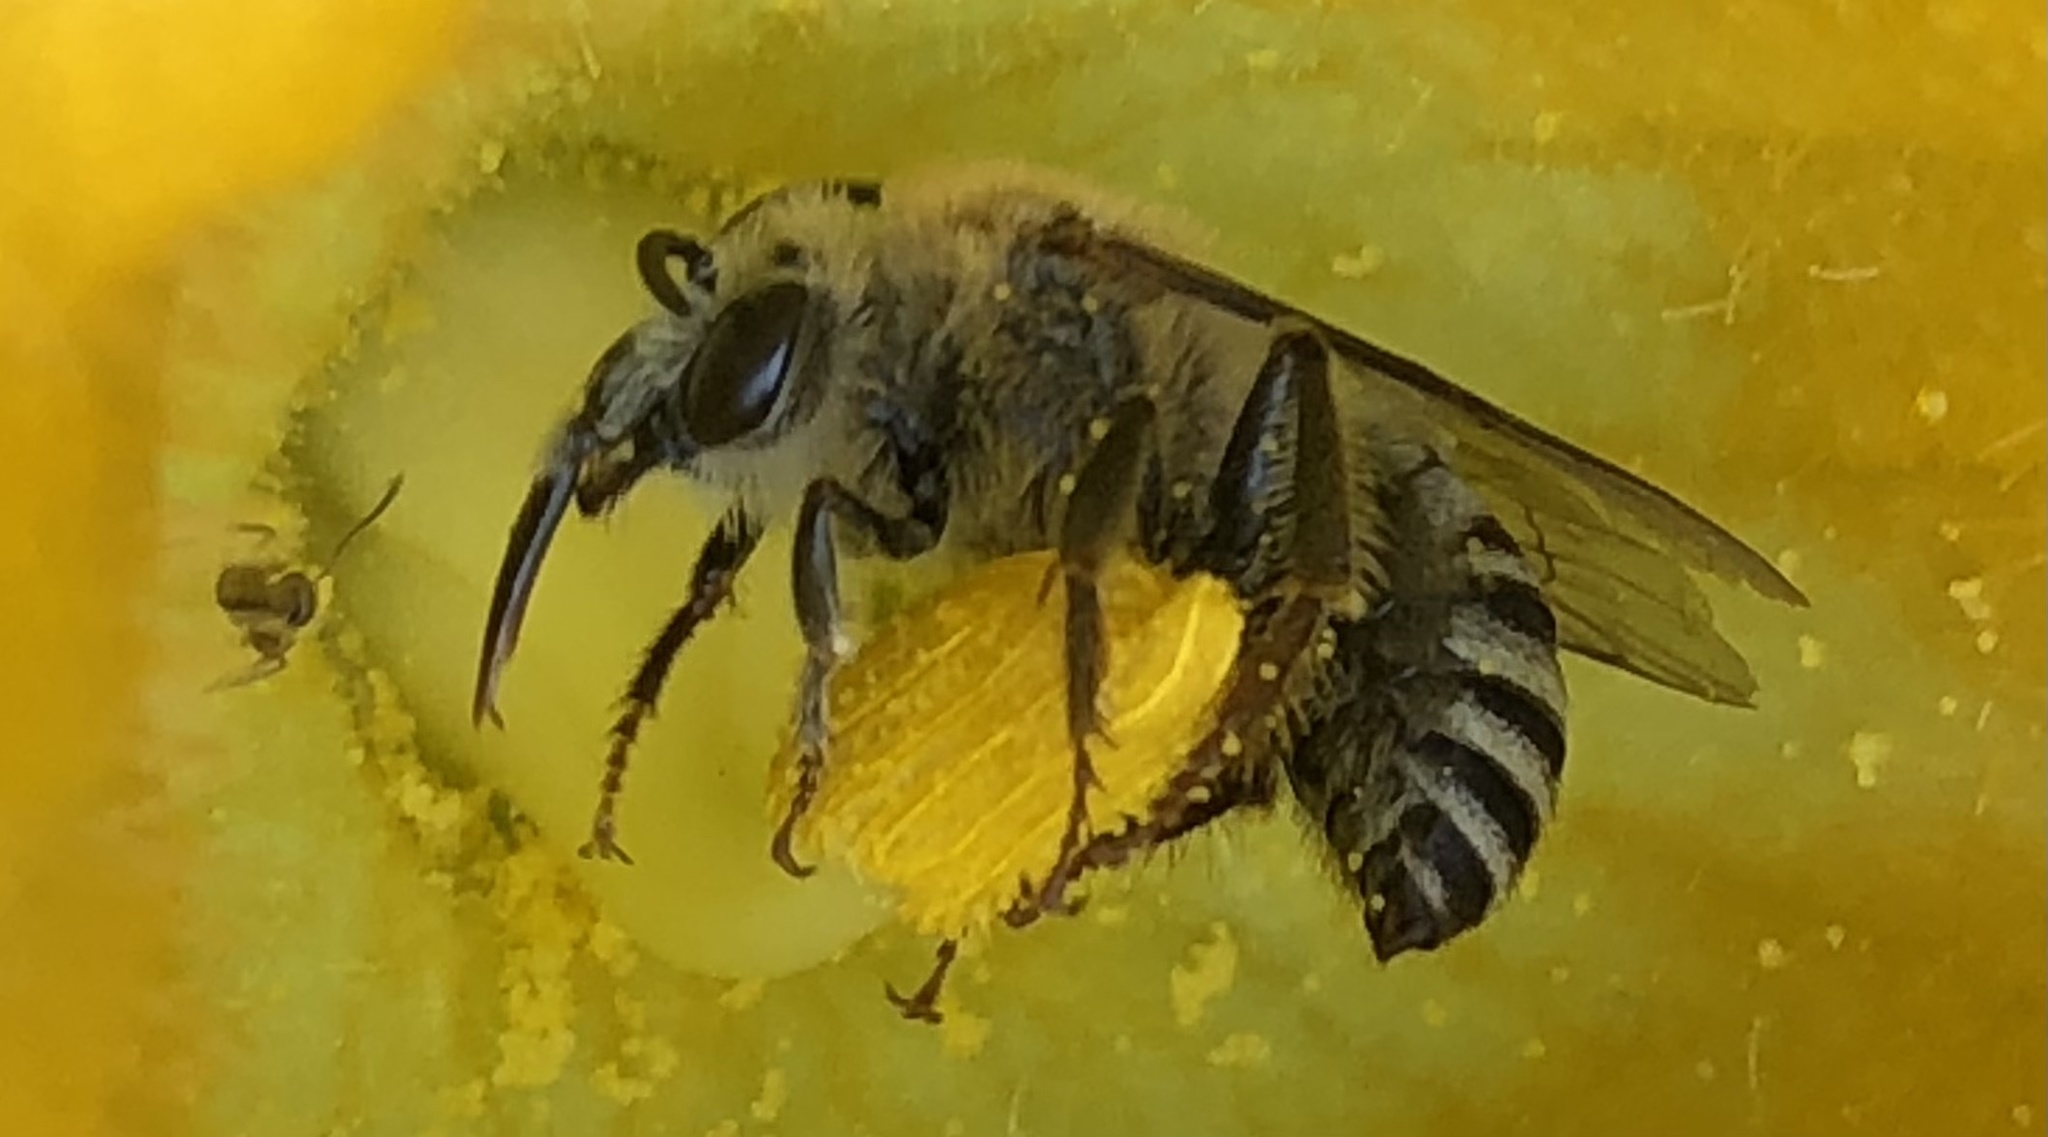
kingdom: Animalia
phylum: Arthropoda
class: Insecta
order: Hymenoptera
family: Apidae
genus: Peponapis
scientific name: Peponapis pruinosa
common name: Pruinose squash bee
